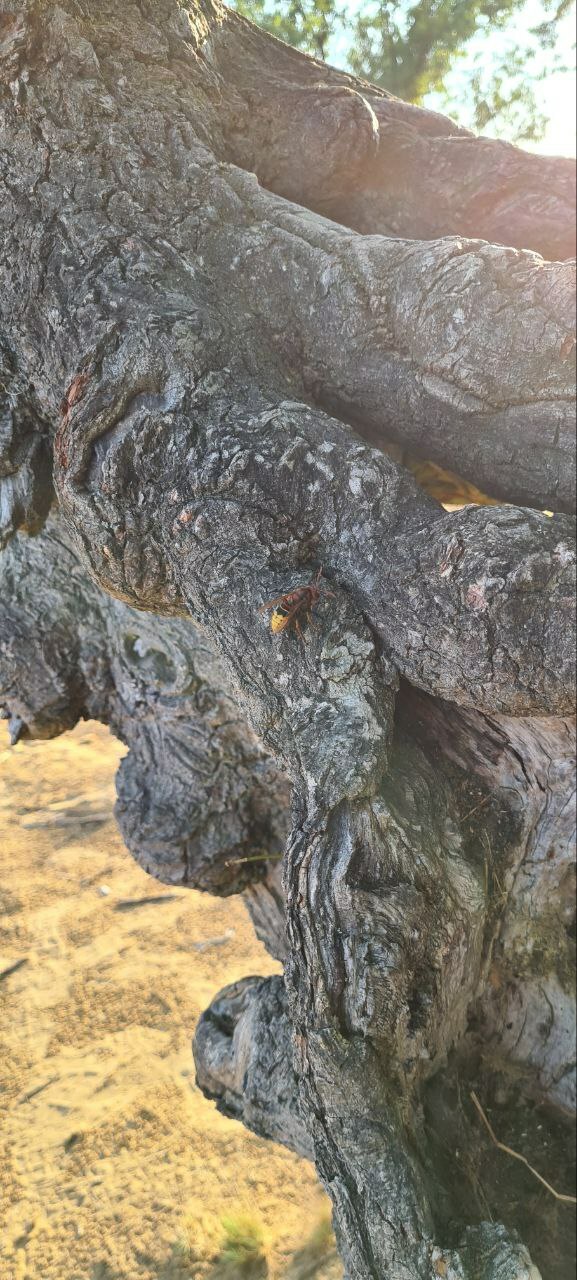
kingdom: Animalia
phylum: Arthropoda
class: Insecta
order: Hymenoptera
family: Vespidae
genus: Vespa
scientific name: Vespa crabro
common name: Hornet
